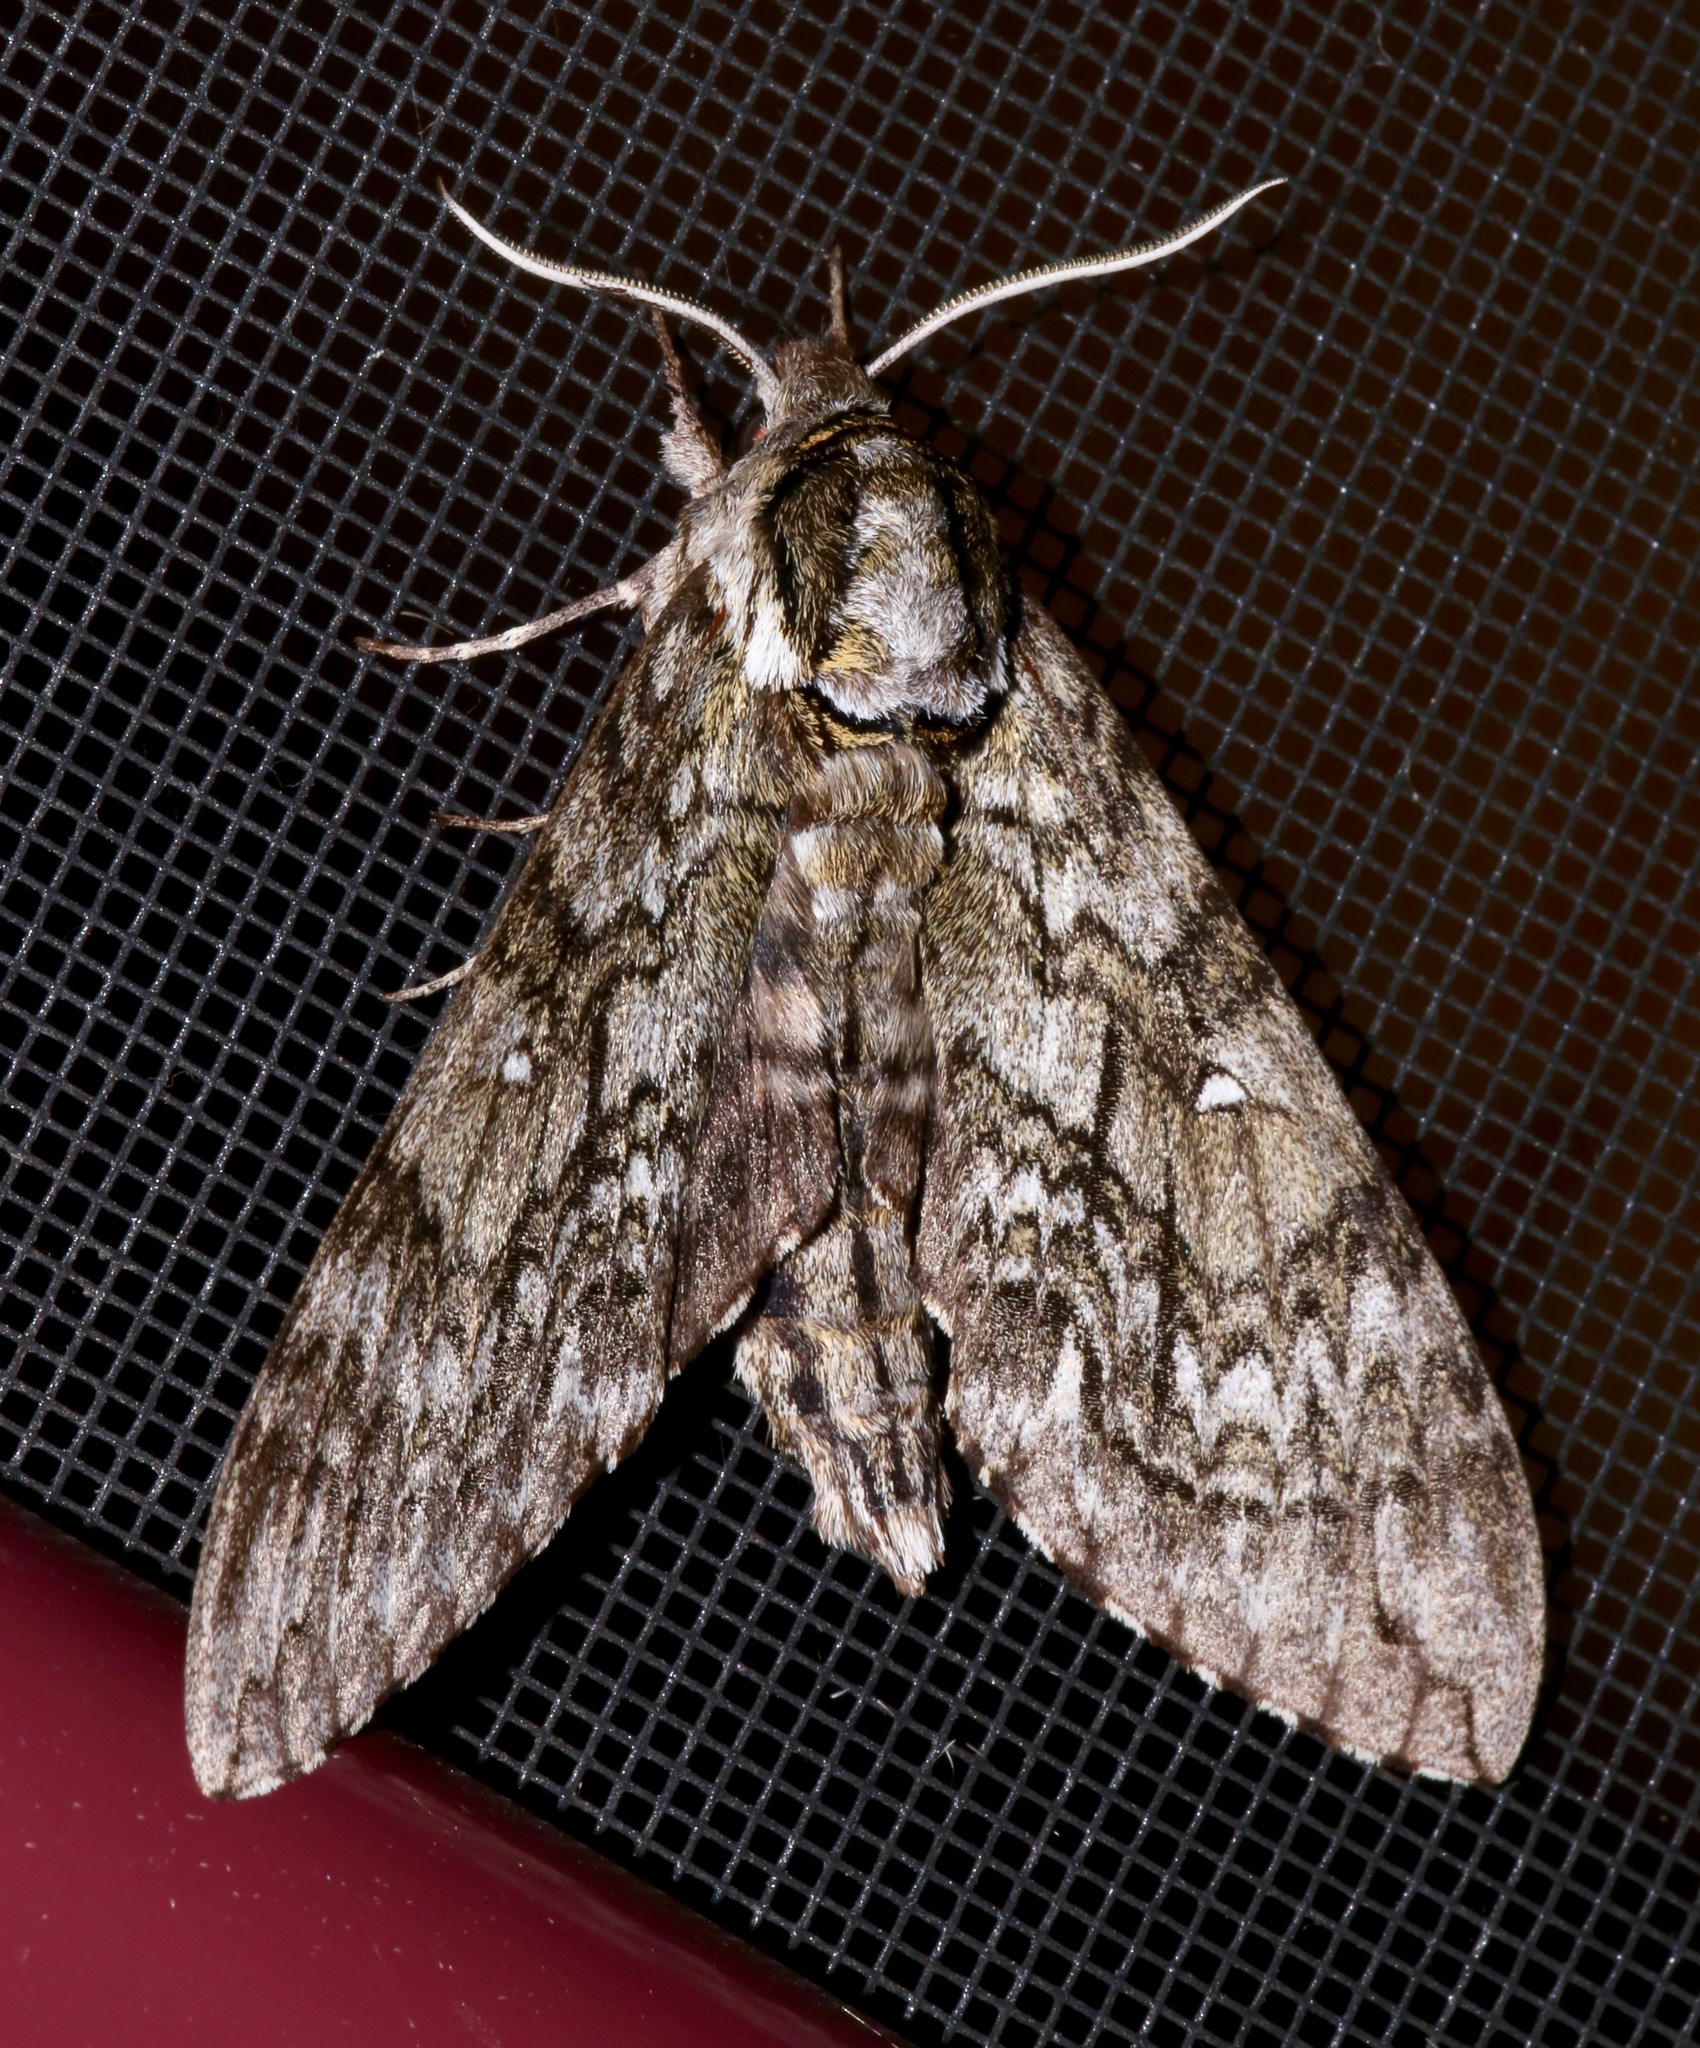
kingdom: Animalia
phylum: Arthropoda
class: Insecta
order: Lepidoptera
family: Sphingidae
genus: Ceratomia
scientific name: Ceratomia undulosa
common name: Waved sphinx
